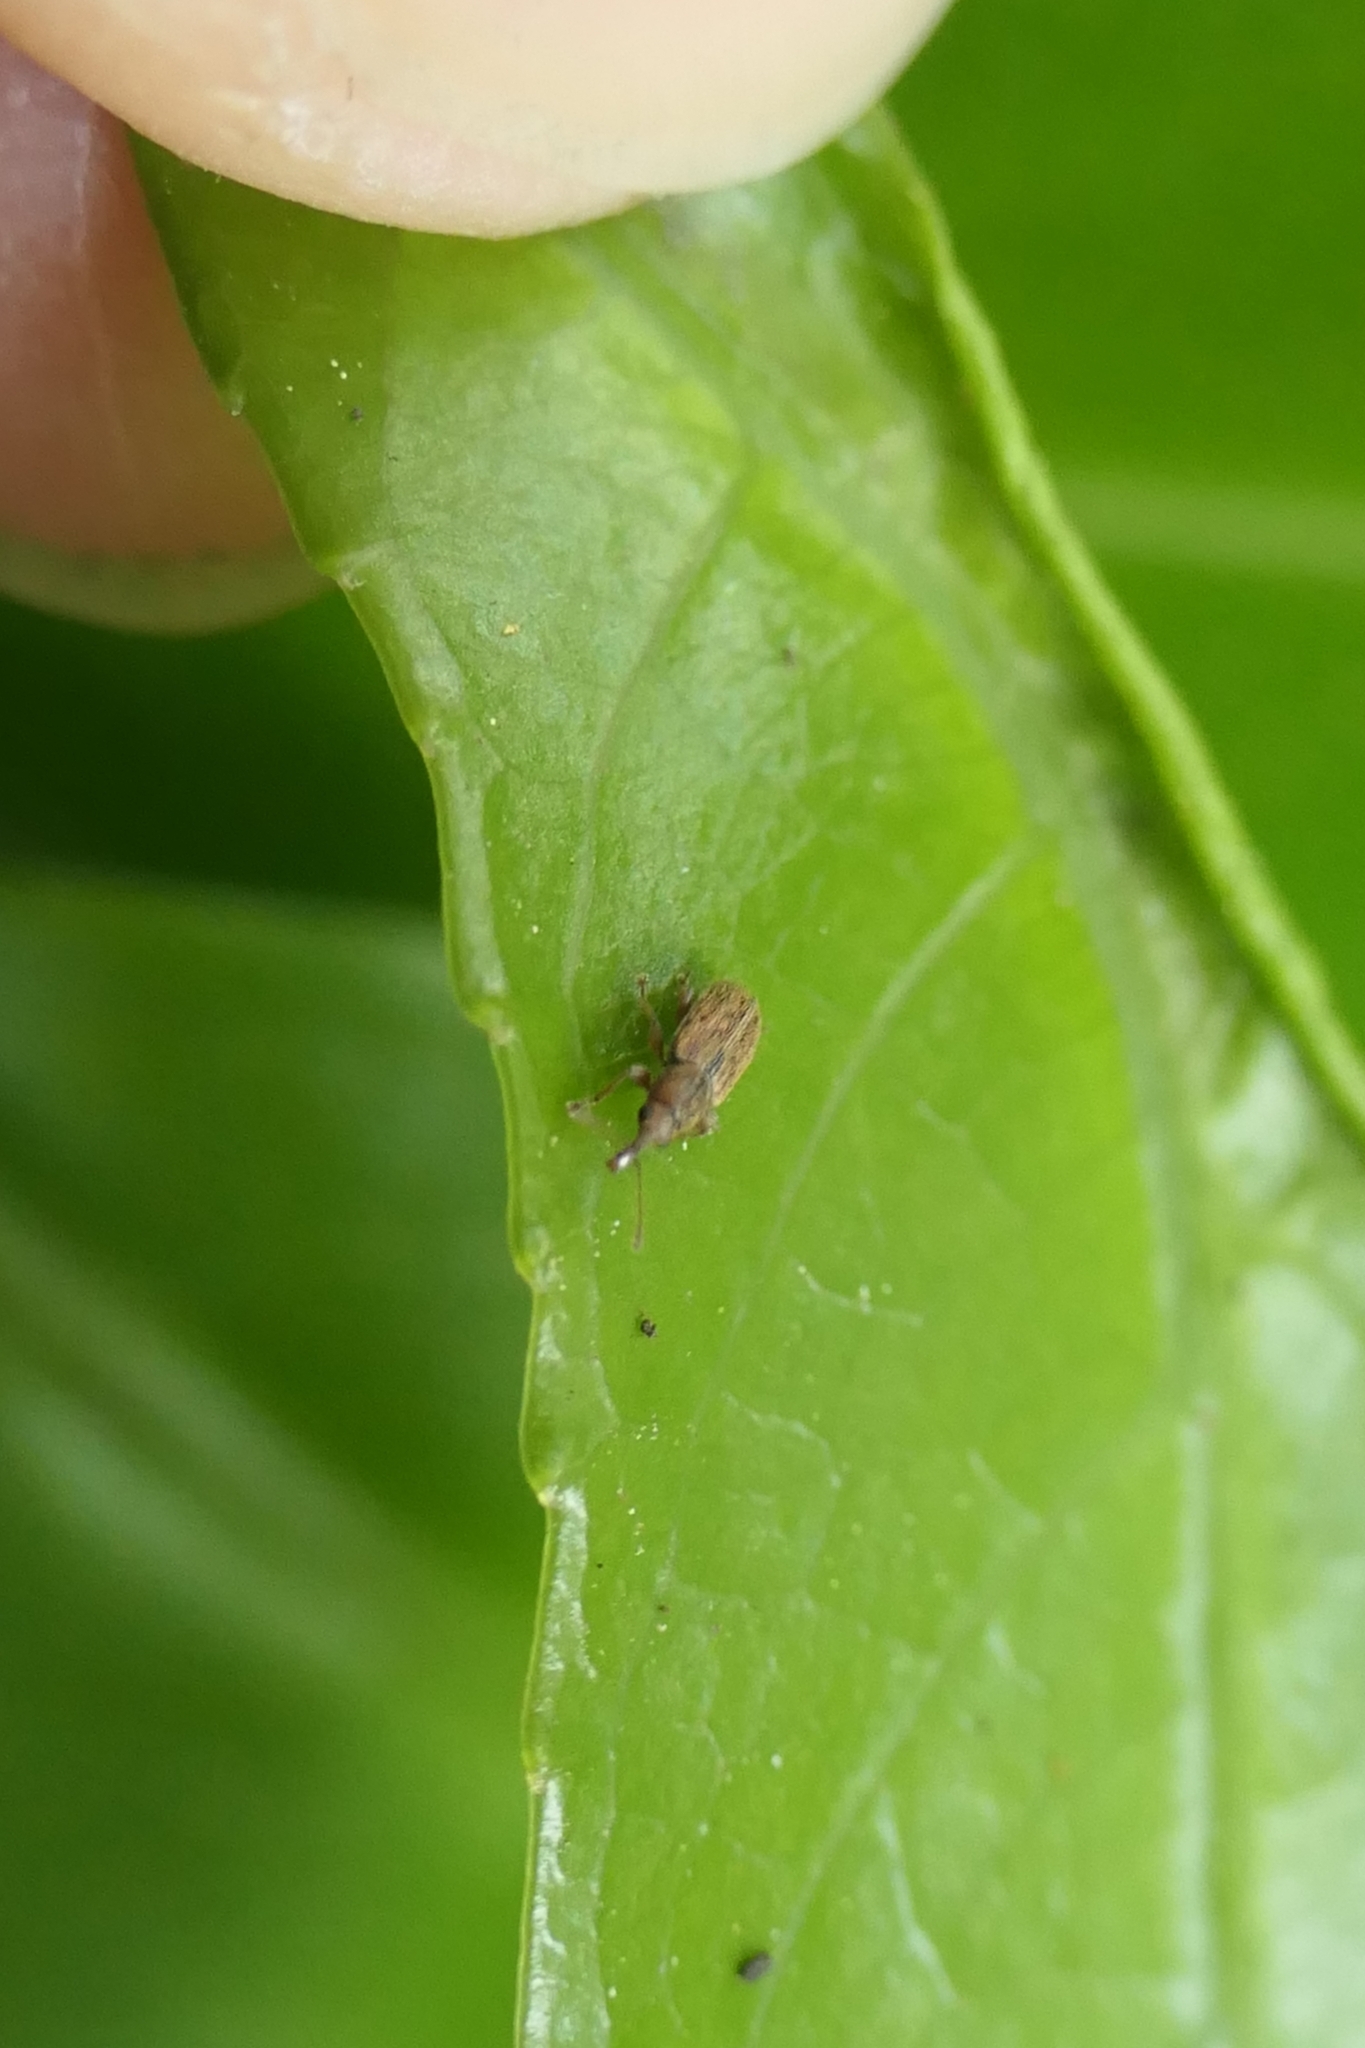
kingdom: Animalia
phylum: Arthropoda
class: Insecta
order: Coleoptera
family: Nemonychidae
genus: Rhinorhynchus
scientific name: Rhinorhynchus rufulus
